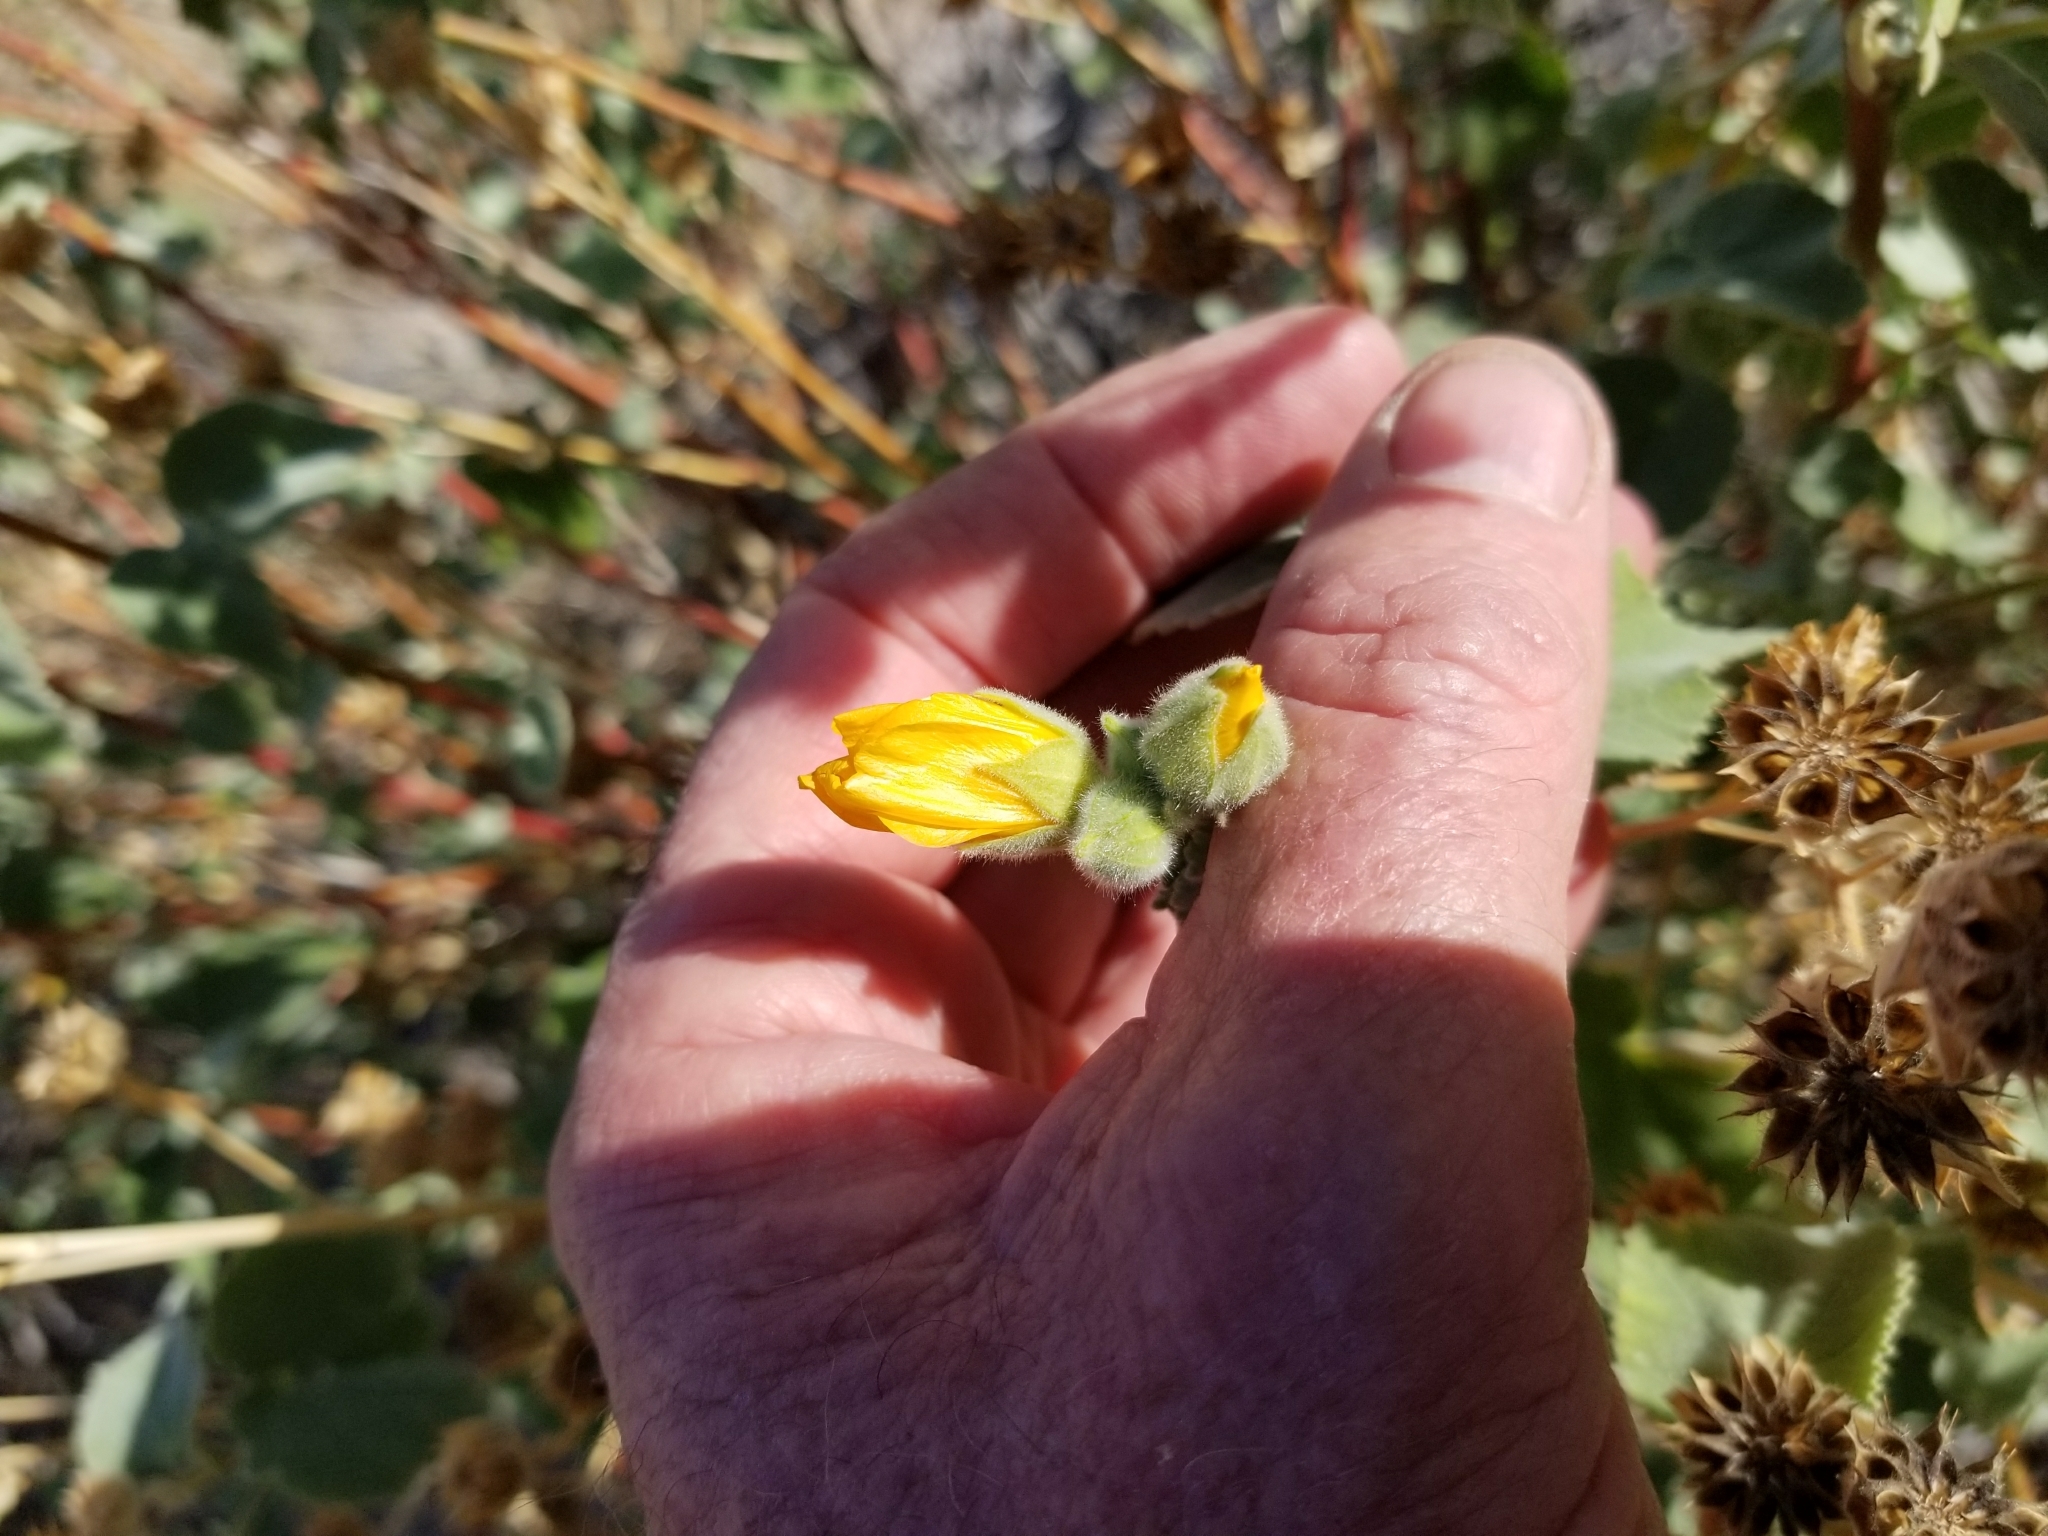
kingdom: Plantae
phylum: Tracheophyta
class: Magnoliopsida
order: Malvales
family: Malvaceae
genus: Abutilon
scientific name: Abutilon palmeri
